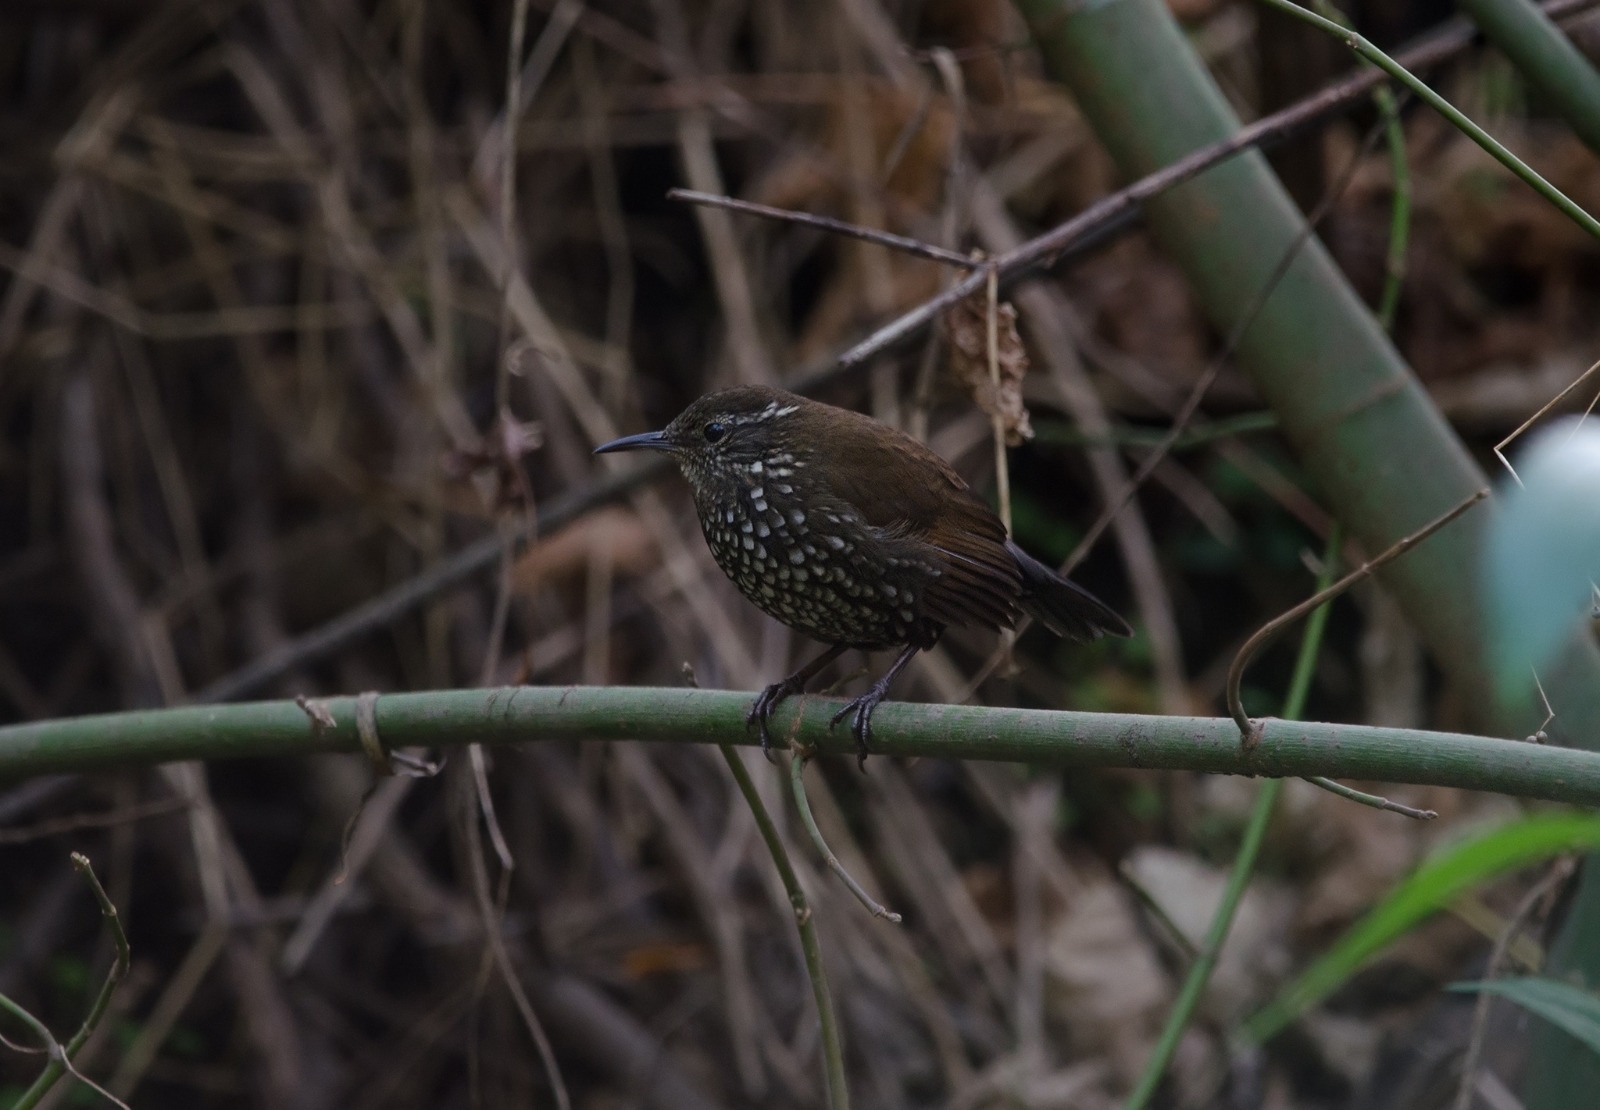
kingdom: Animalia
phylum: Chordata
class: Aves
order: Passeriformes
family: Furnariidae
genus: Lochmias
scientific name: Lochmias nematura
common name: Sharp-tailed streamcreeper
